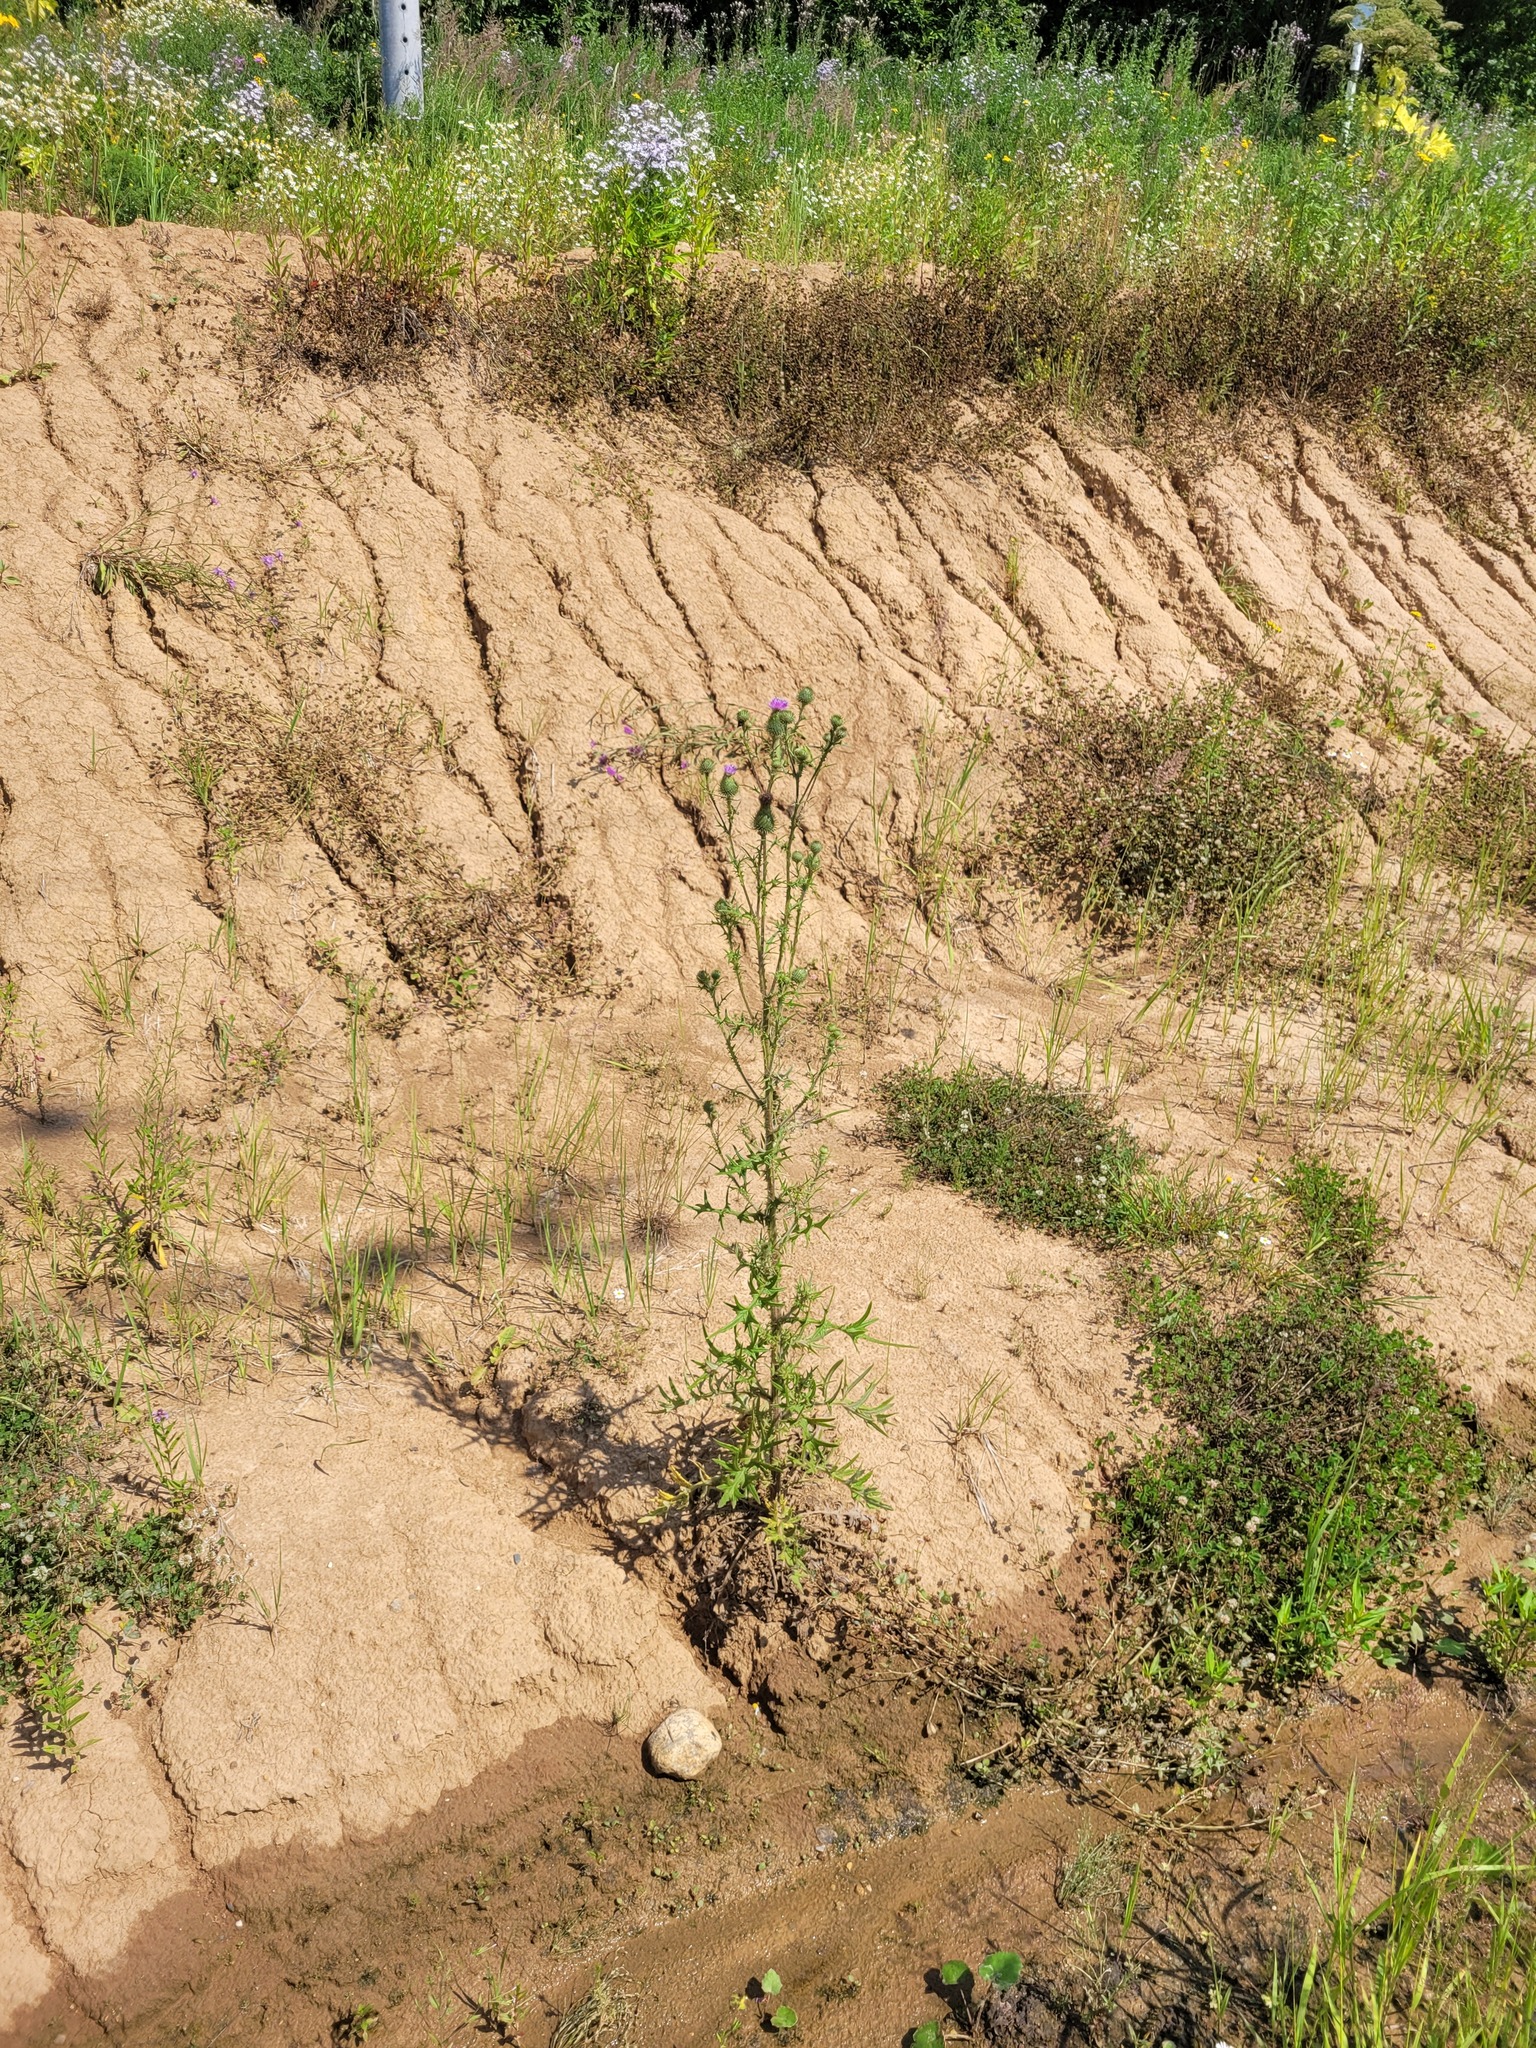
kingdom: Plantae
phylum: Tracheophyta
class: Magnoliopsida
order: Asterales
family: Asteraceae
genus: Cirsium
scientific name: Cirsium vulgare
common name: Bull thistle
